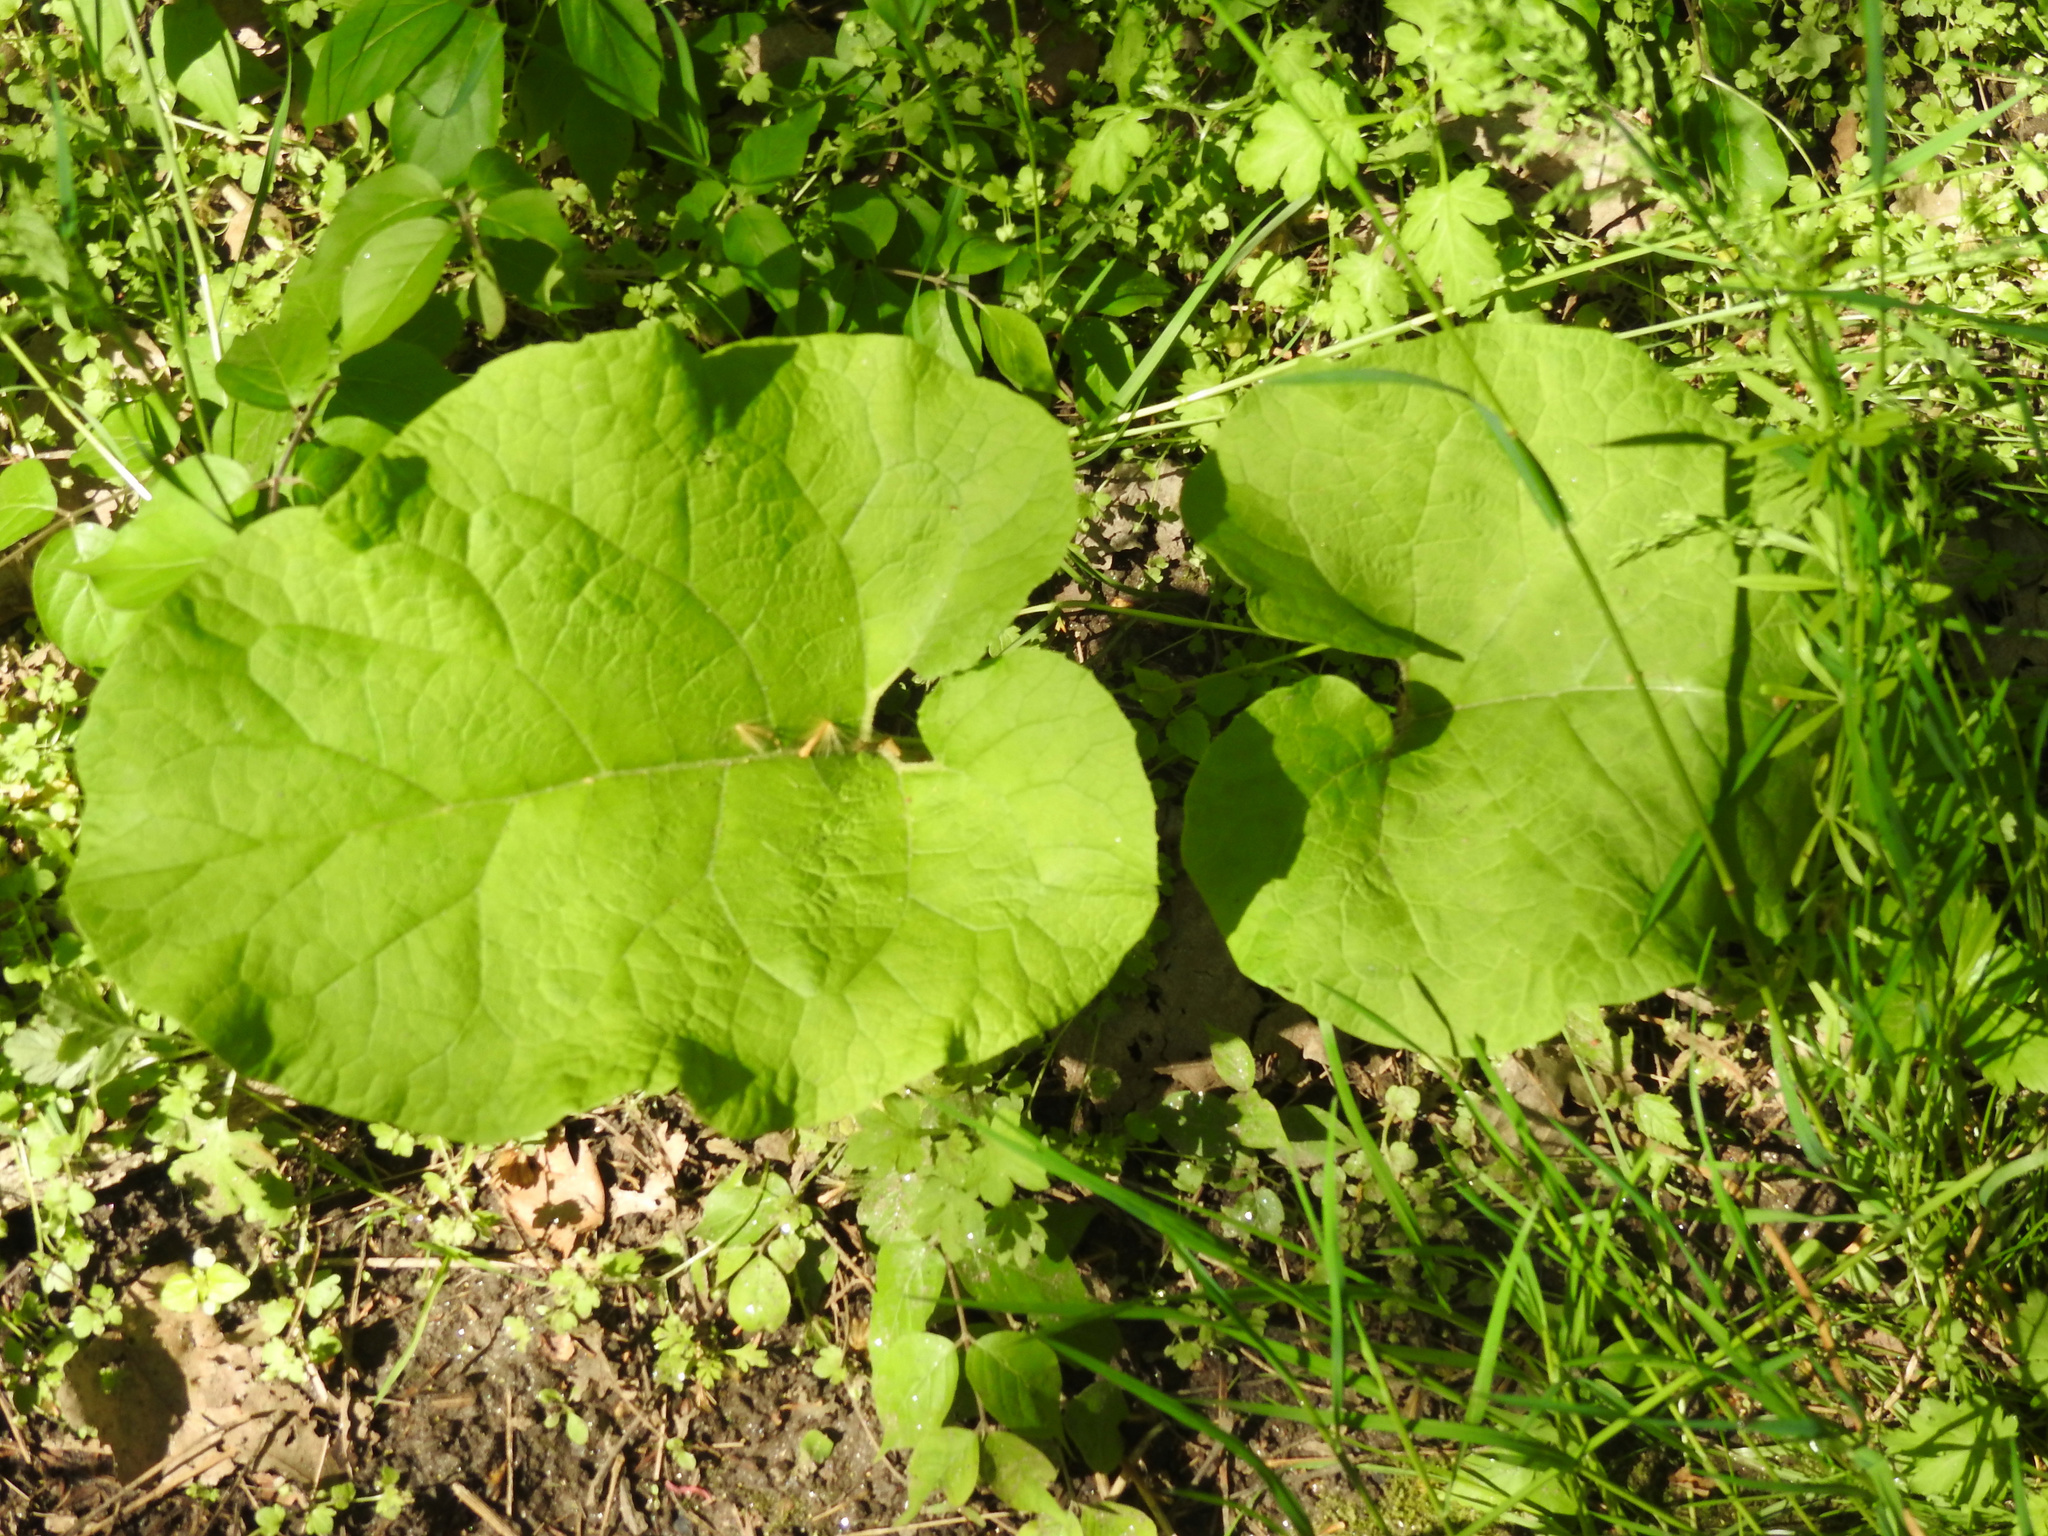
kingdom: Plantae
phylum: Tracheophyta
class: Magnoliopsida
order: Asterales
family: Asteraceae
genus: Arctium
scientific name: Arctium
